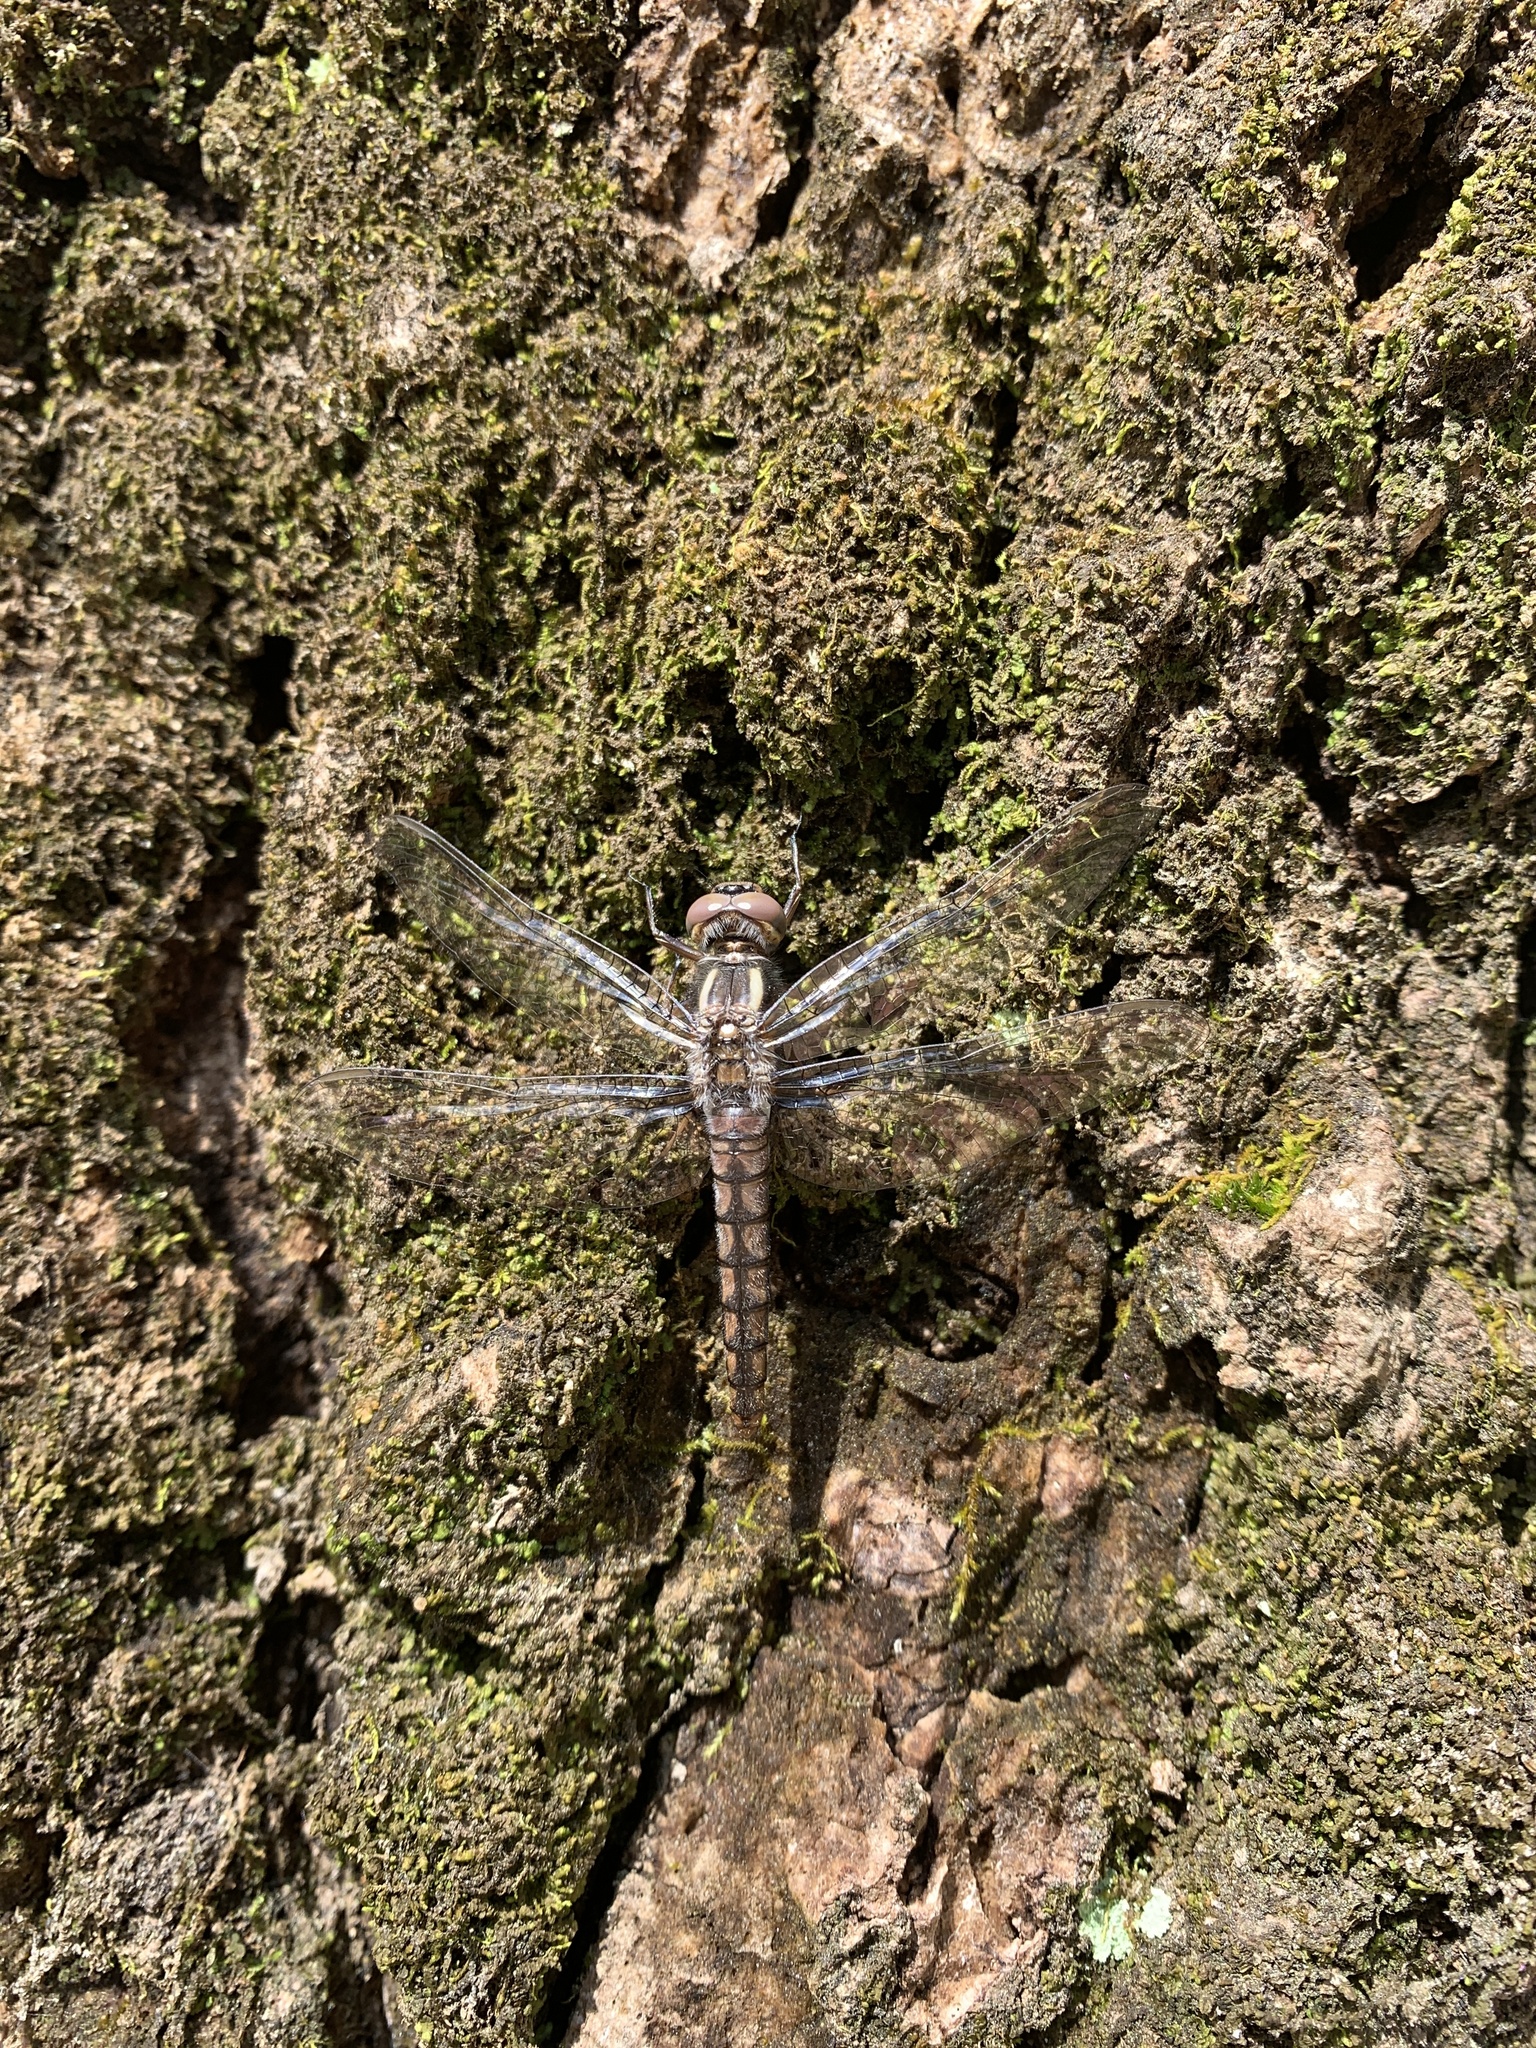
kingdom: Animalia
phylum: Arthropoda
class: Insecta
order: Odonata
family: Libellulidae
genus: Ladona
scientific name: Ladona deplanata
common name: Blue corporal
